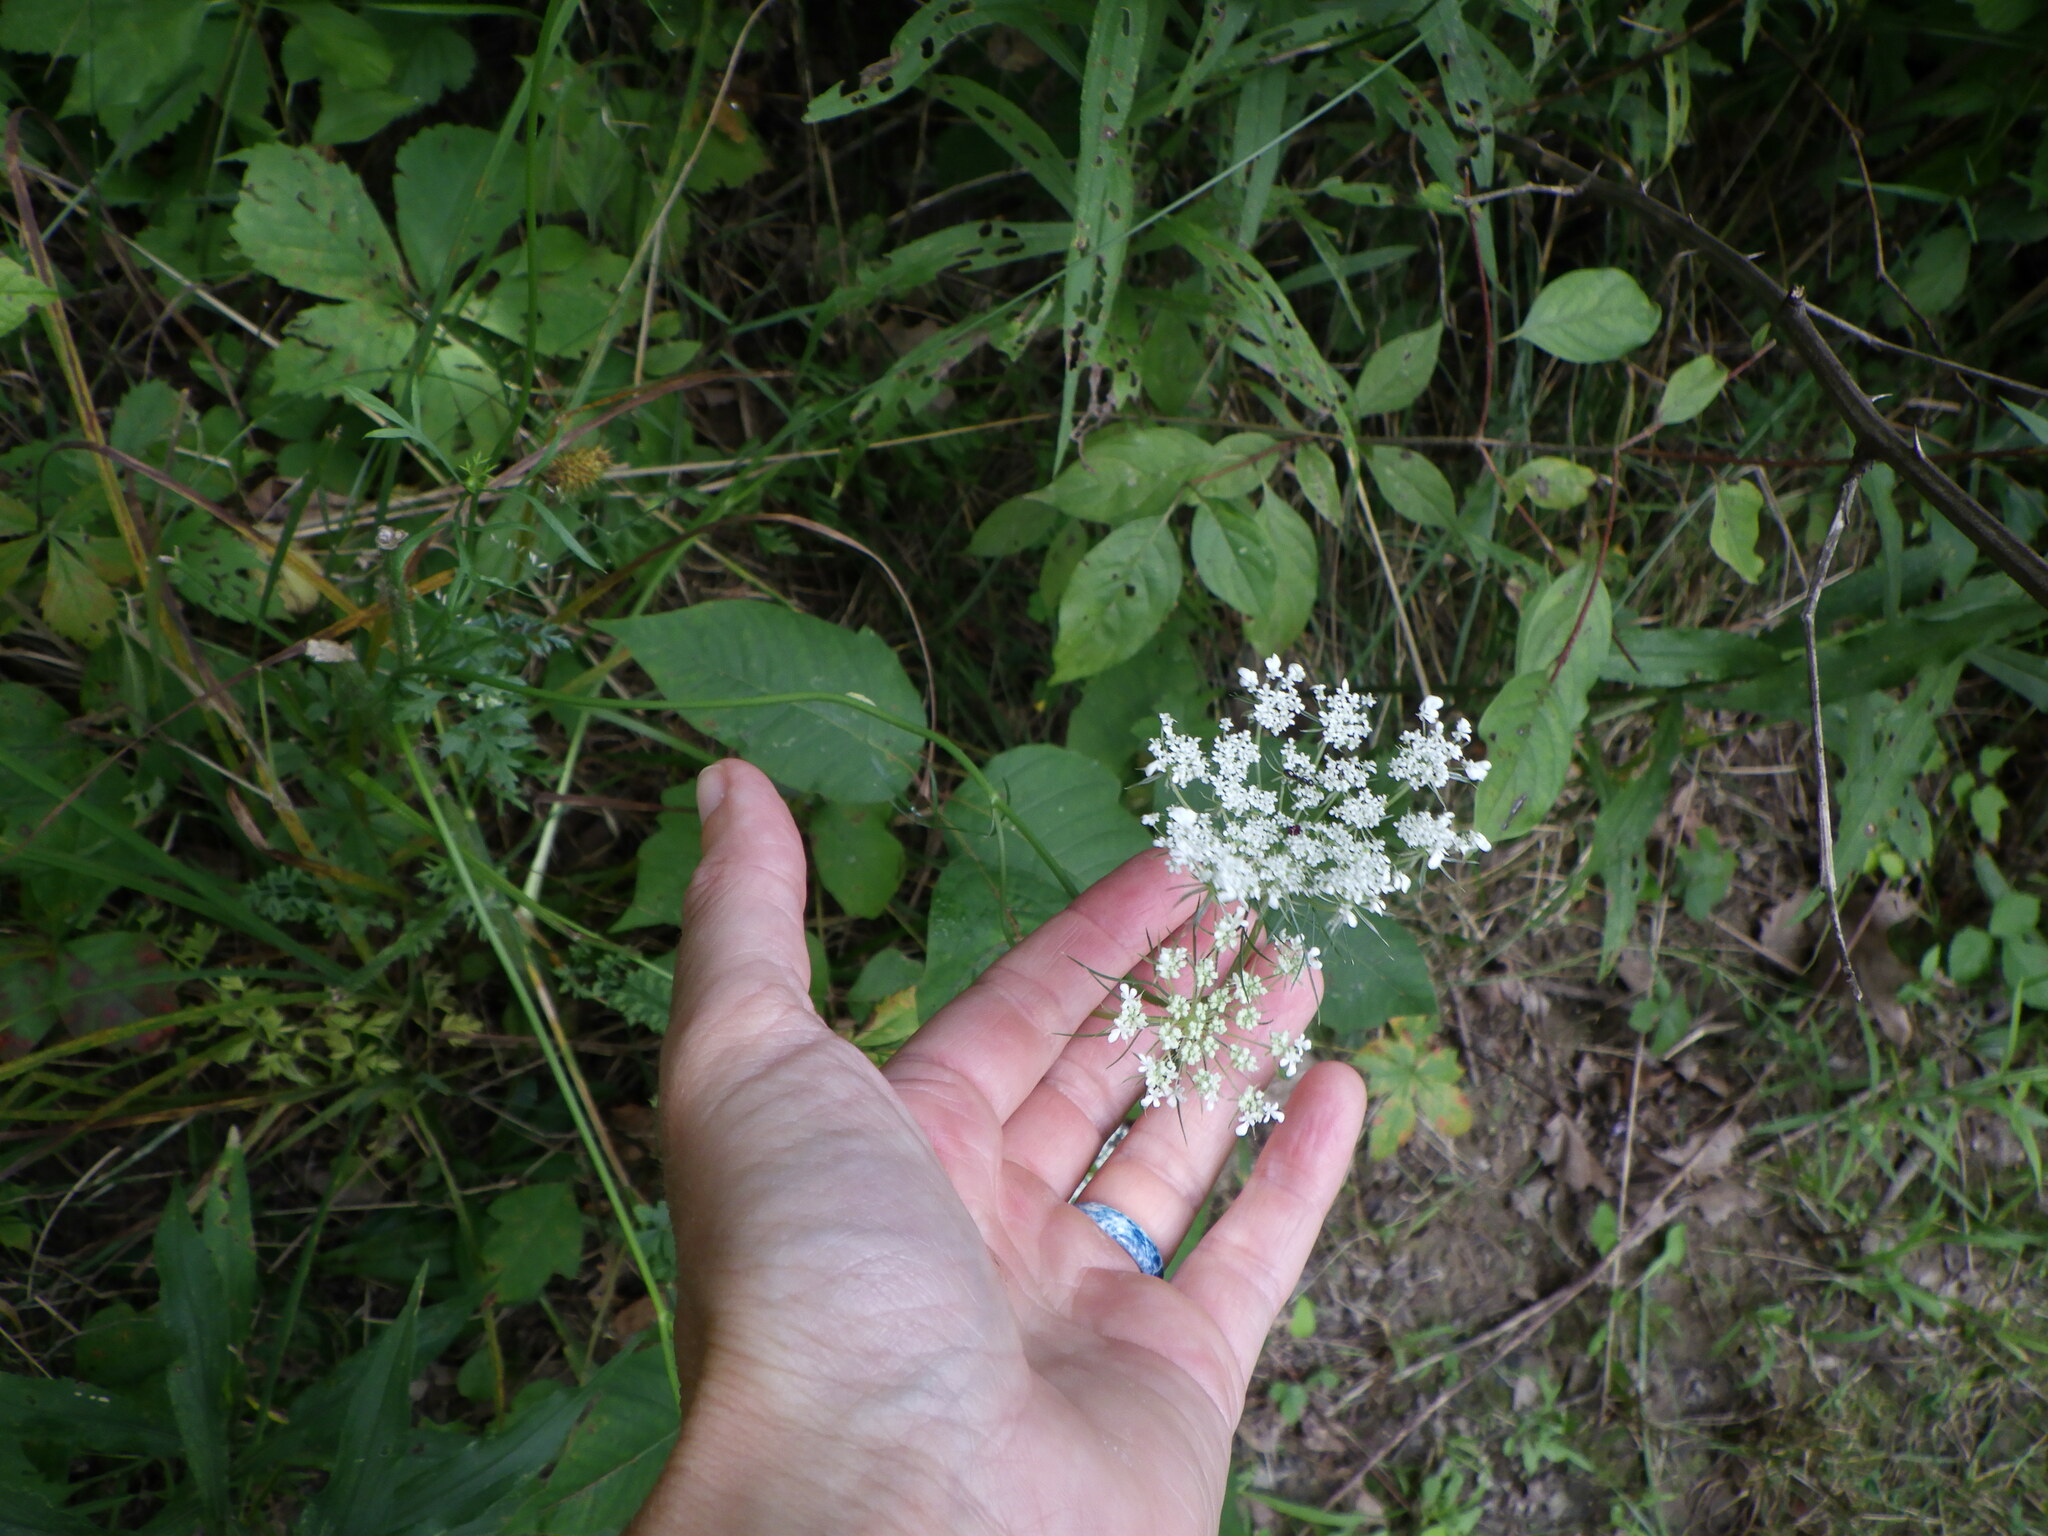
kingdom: Plantae
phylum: Tracheophyta
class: Magnoliopsida
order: Apiales
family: Apiaceae
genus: Daucus
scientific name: Daucus carota
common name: Wild carrot
